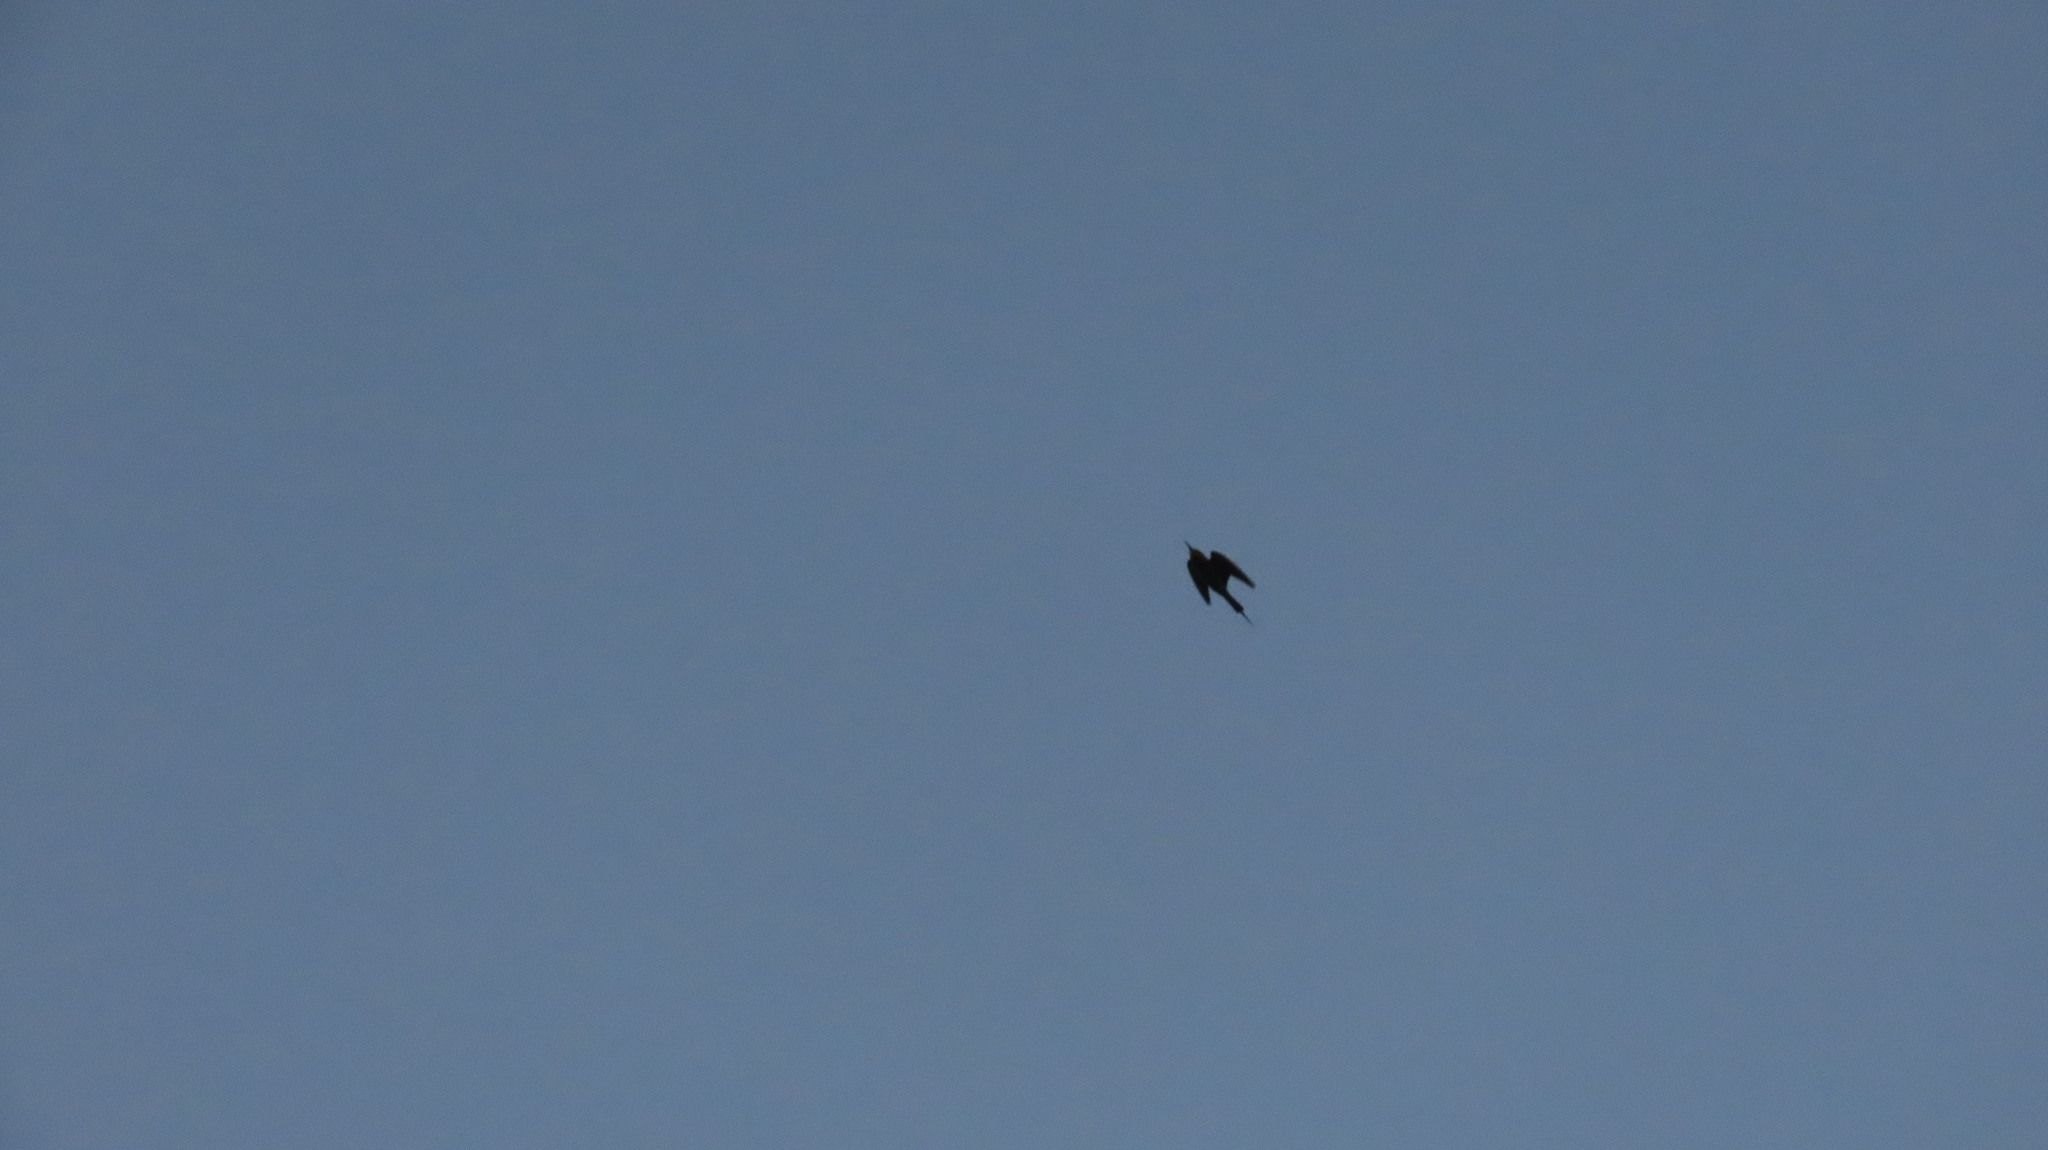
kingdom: Animalia
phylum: Chordata
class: Aves
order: Coraciiformes
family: Meropidae
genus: Merops
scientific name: Merops philippinus
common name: Blue-tailed bee-eater
